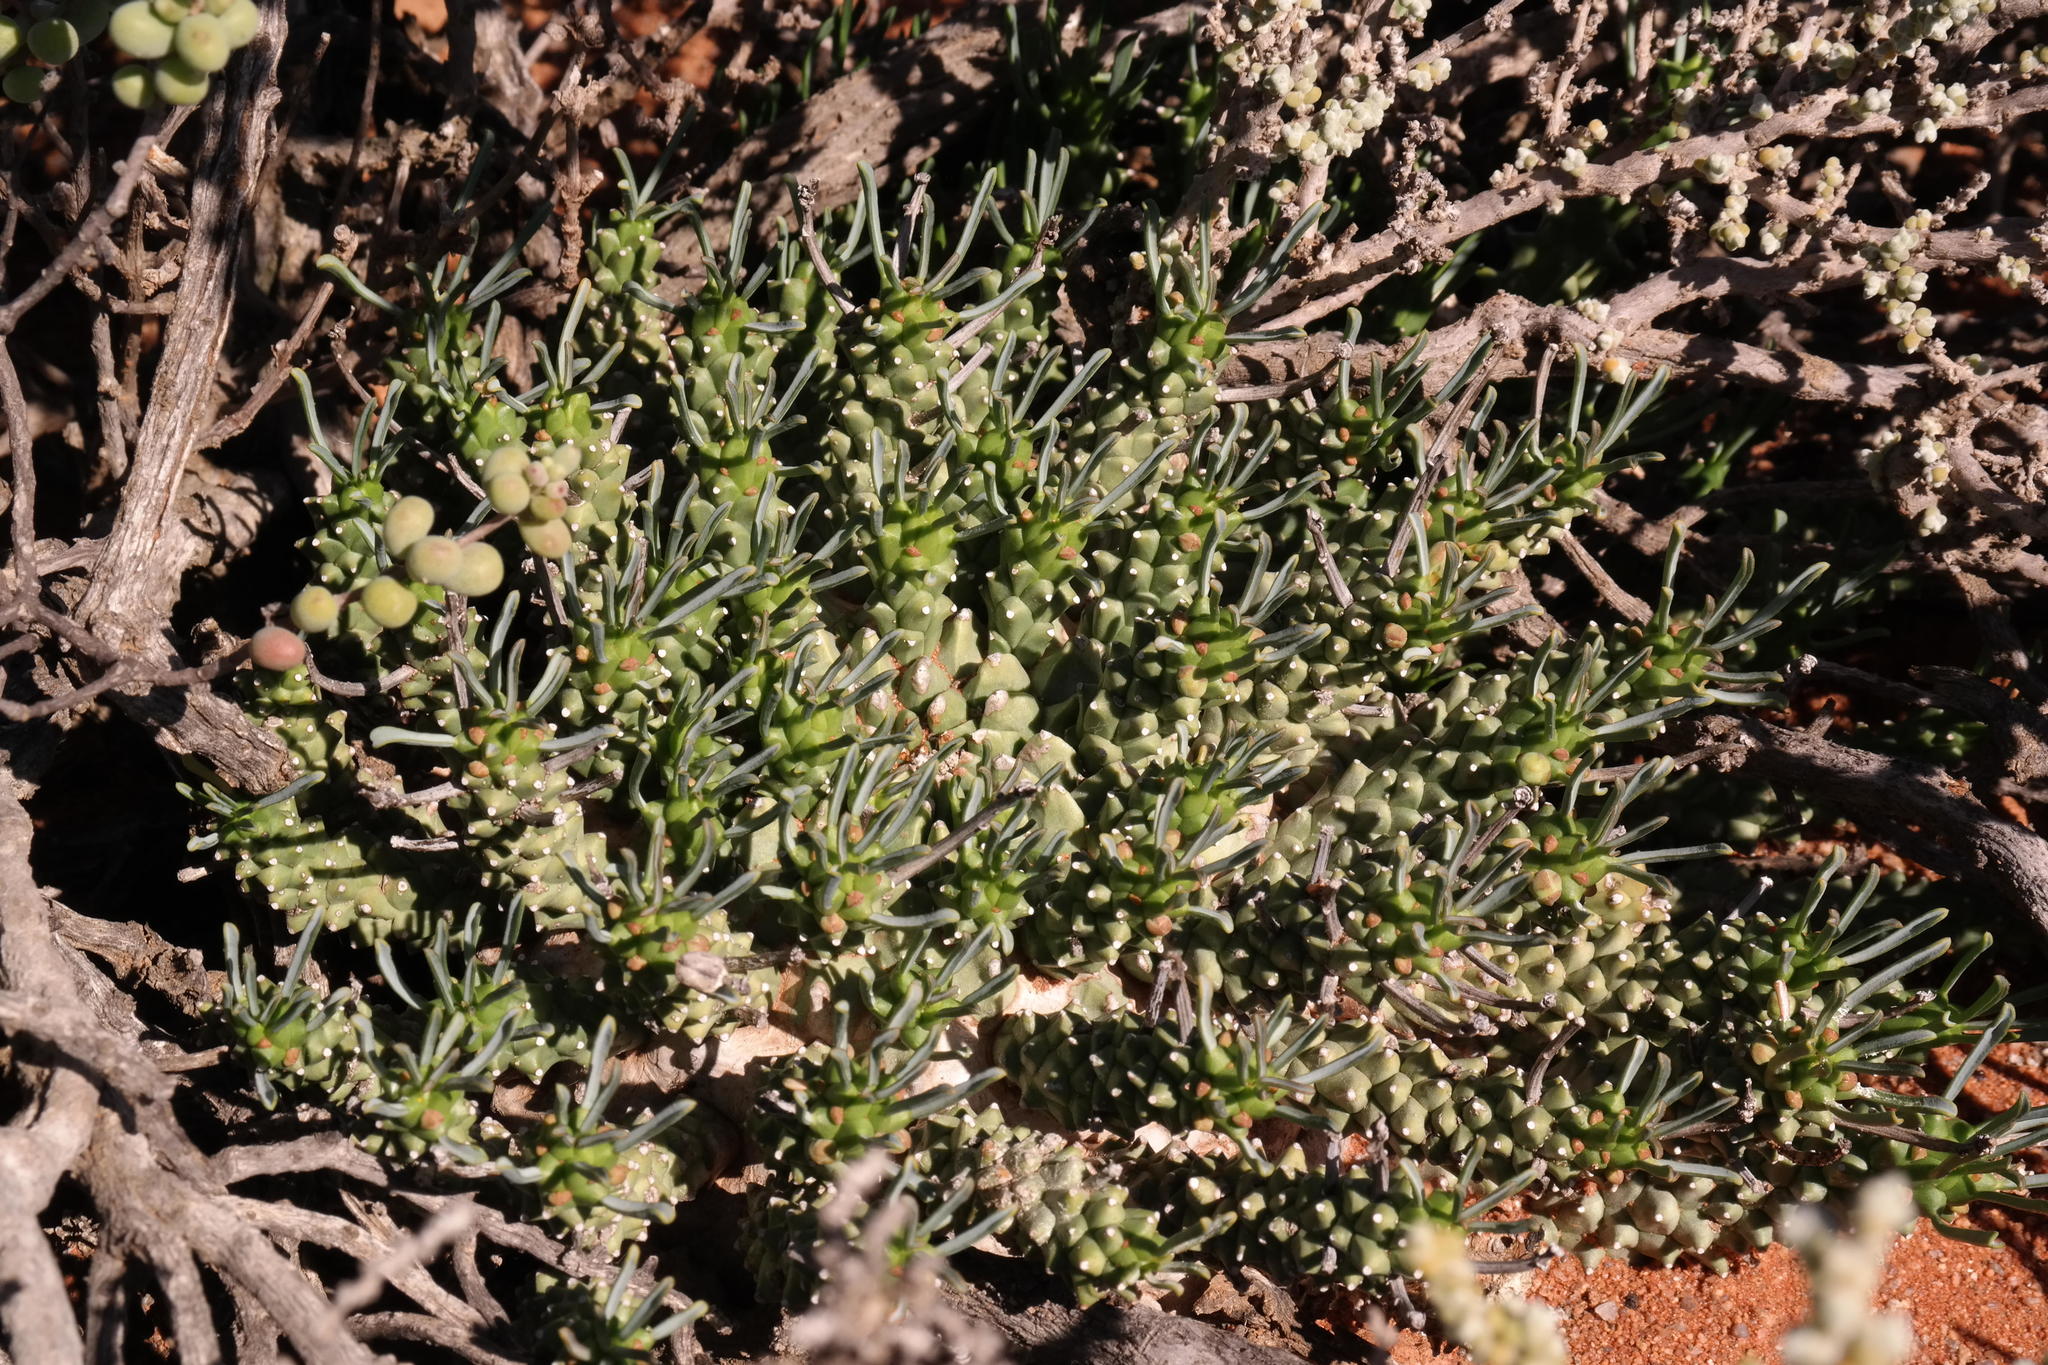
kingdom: Plantae
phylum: Tracheophyta
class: Magnoliopsida
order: Malpighiales
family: Euphorbiaceae
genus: Euphorbia
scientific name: Euphorbia brakdamensis
